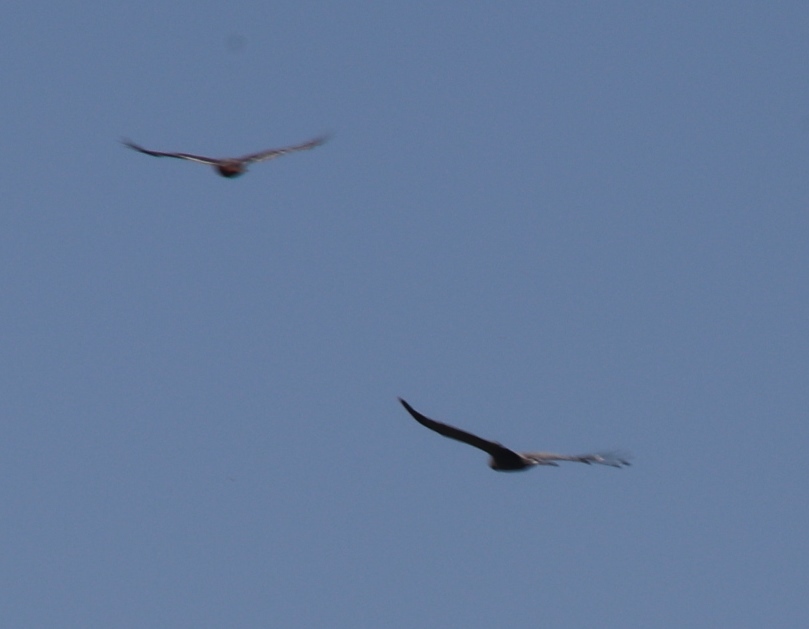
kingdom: Animalia
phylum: Chordata
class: Aves
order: Accipitriformes
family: Accipitridae
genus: Buteo
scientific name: Buteo rufofuscus
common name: Jackal buzzard
